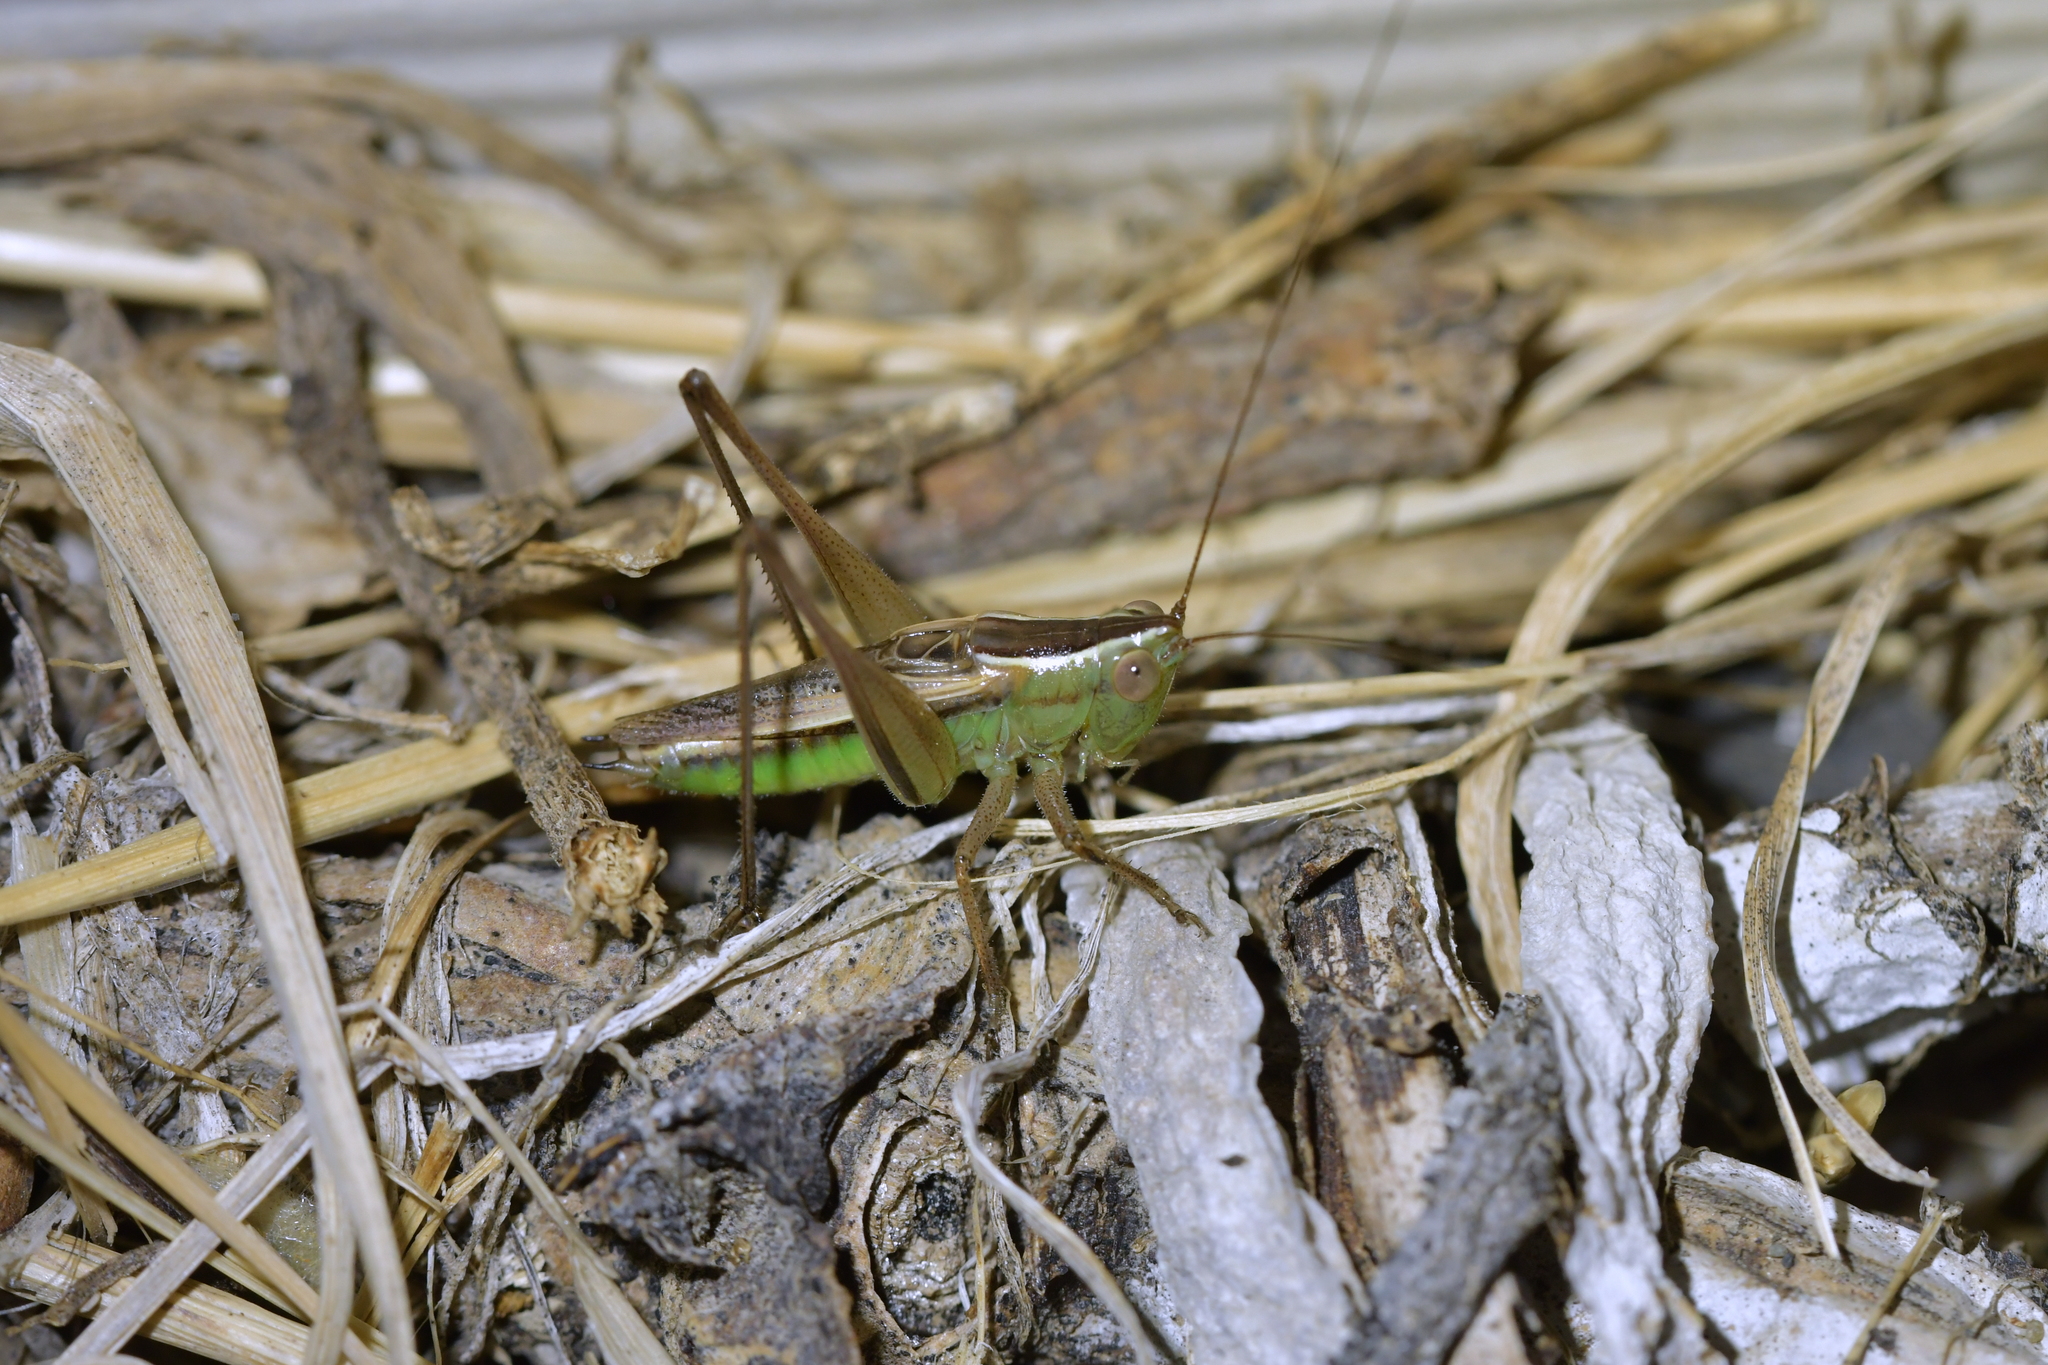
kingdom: Animalia
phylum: Arthropoda
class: Insecta
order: Orthoptera
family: Tettigoniidae
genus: Conocephalus
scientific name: Conocephalus albescens
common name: Whitish meadow katydid
